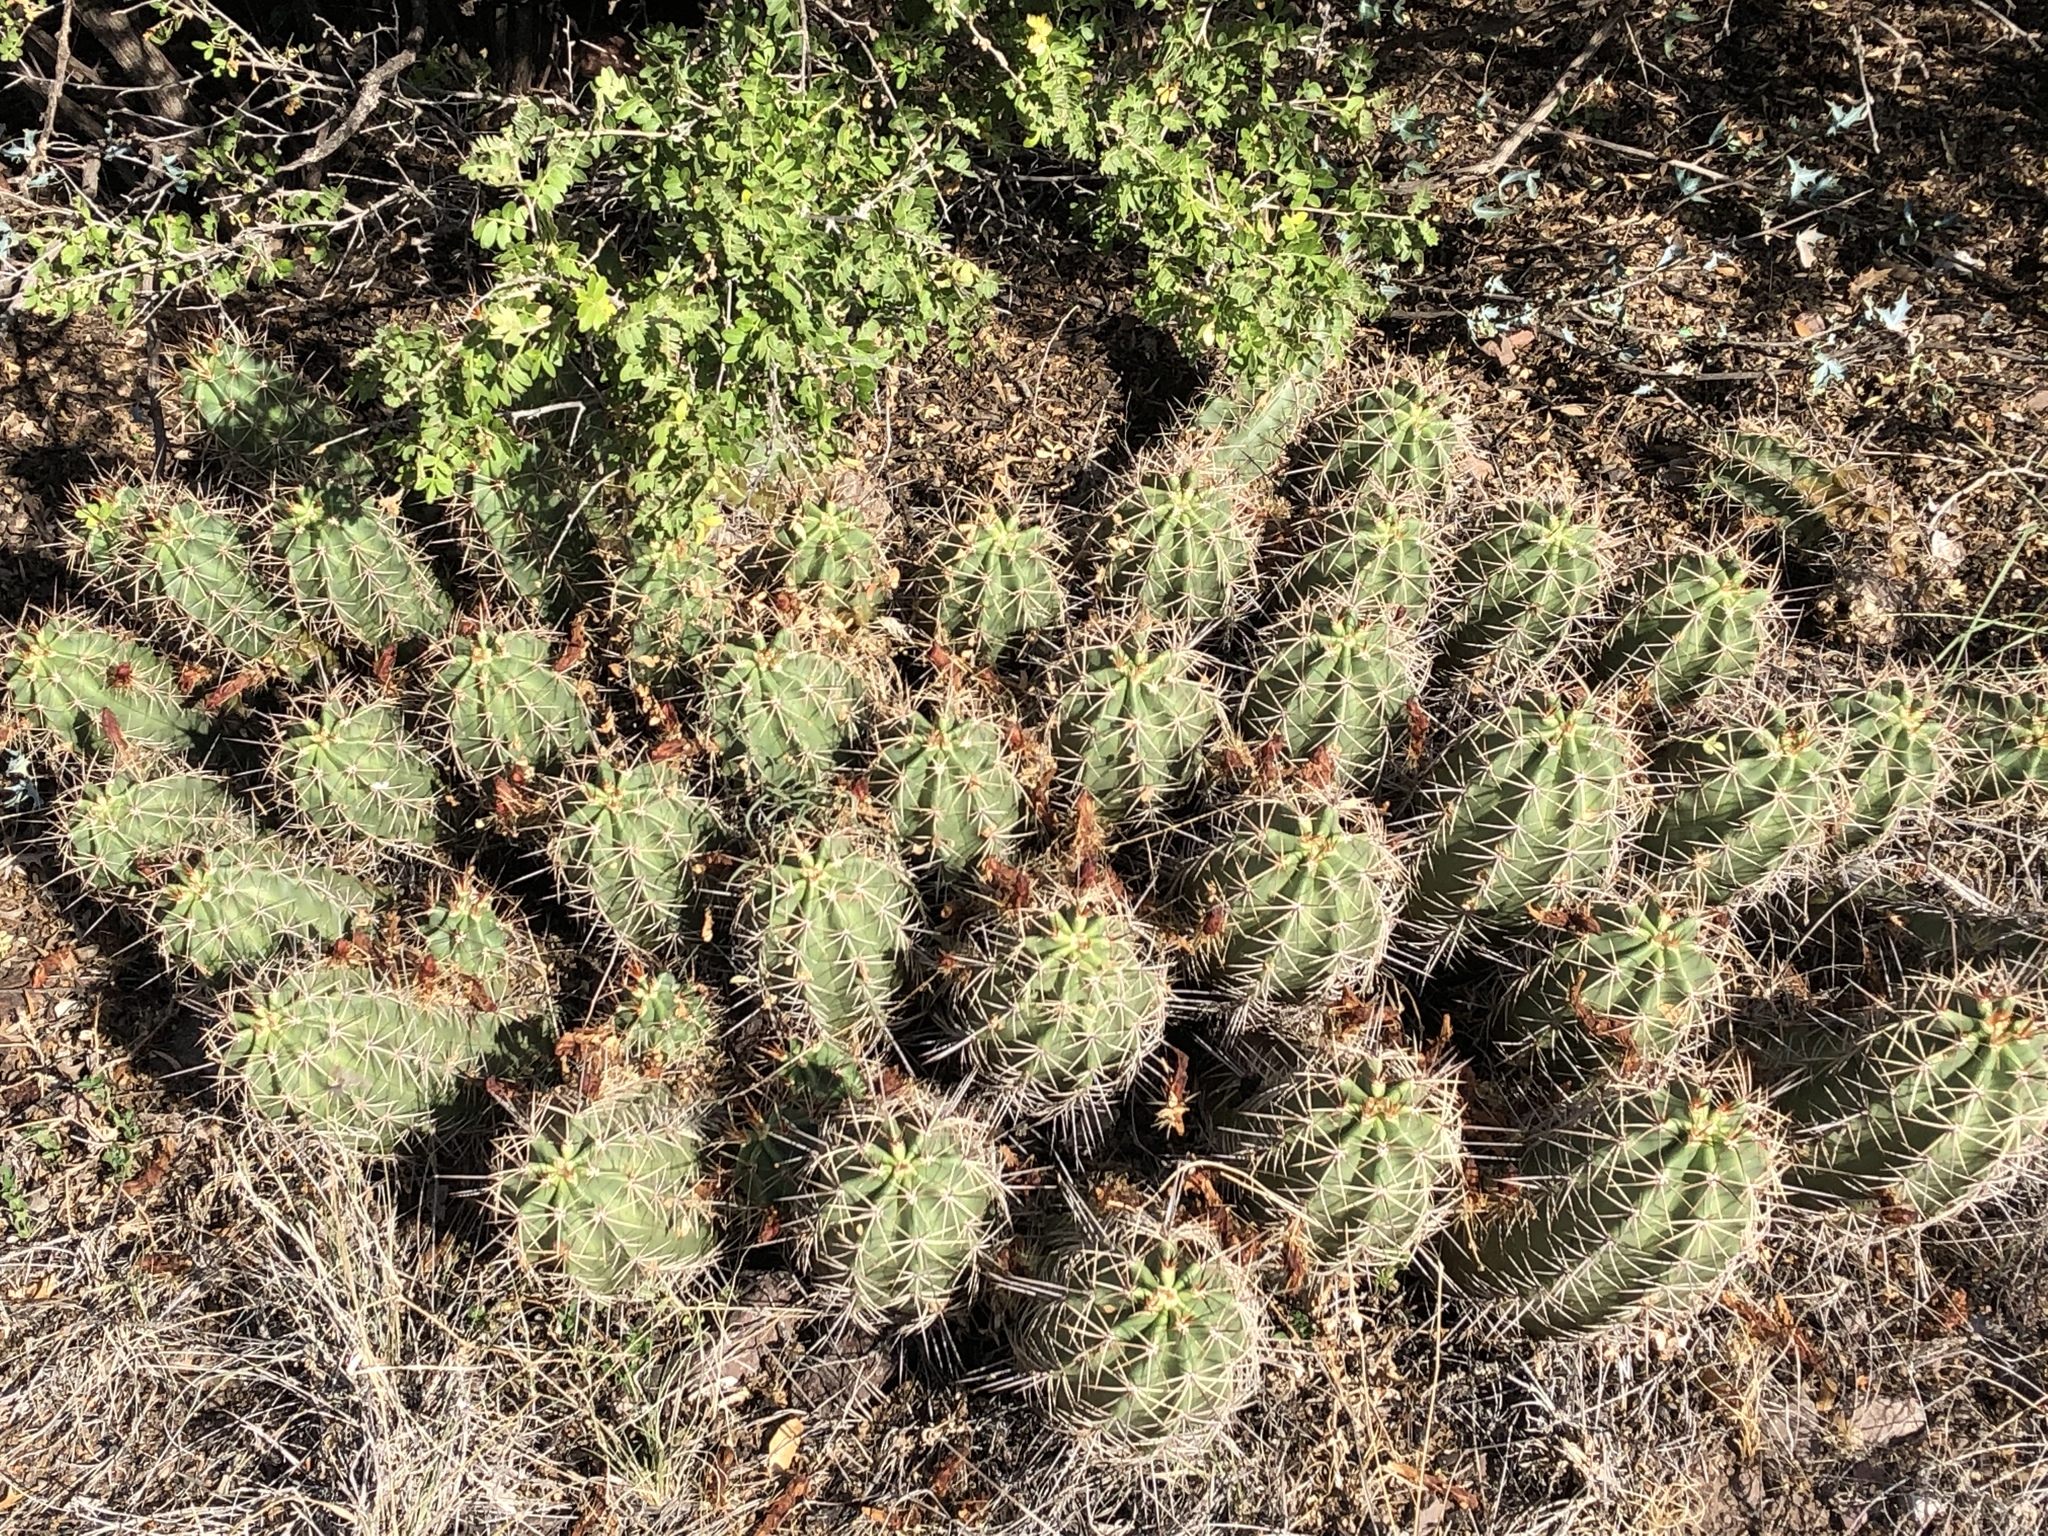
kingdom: Plantae
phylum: Tracheophyta
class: Magnoliopsida
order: Caryophyllales
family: Cactaceae
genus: Echinocereus
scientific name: Echinocereus coccineus
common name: Scarlet hedgehog cactus
